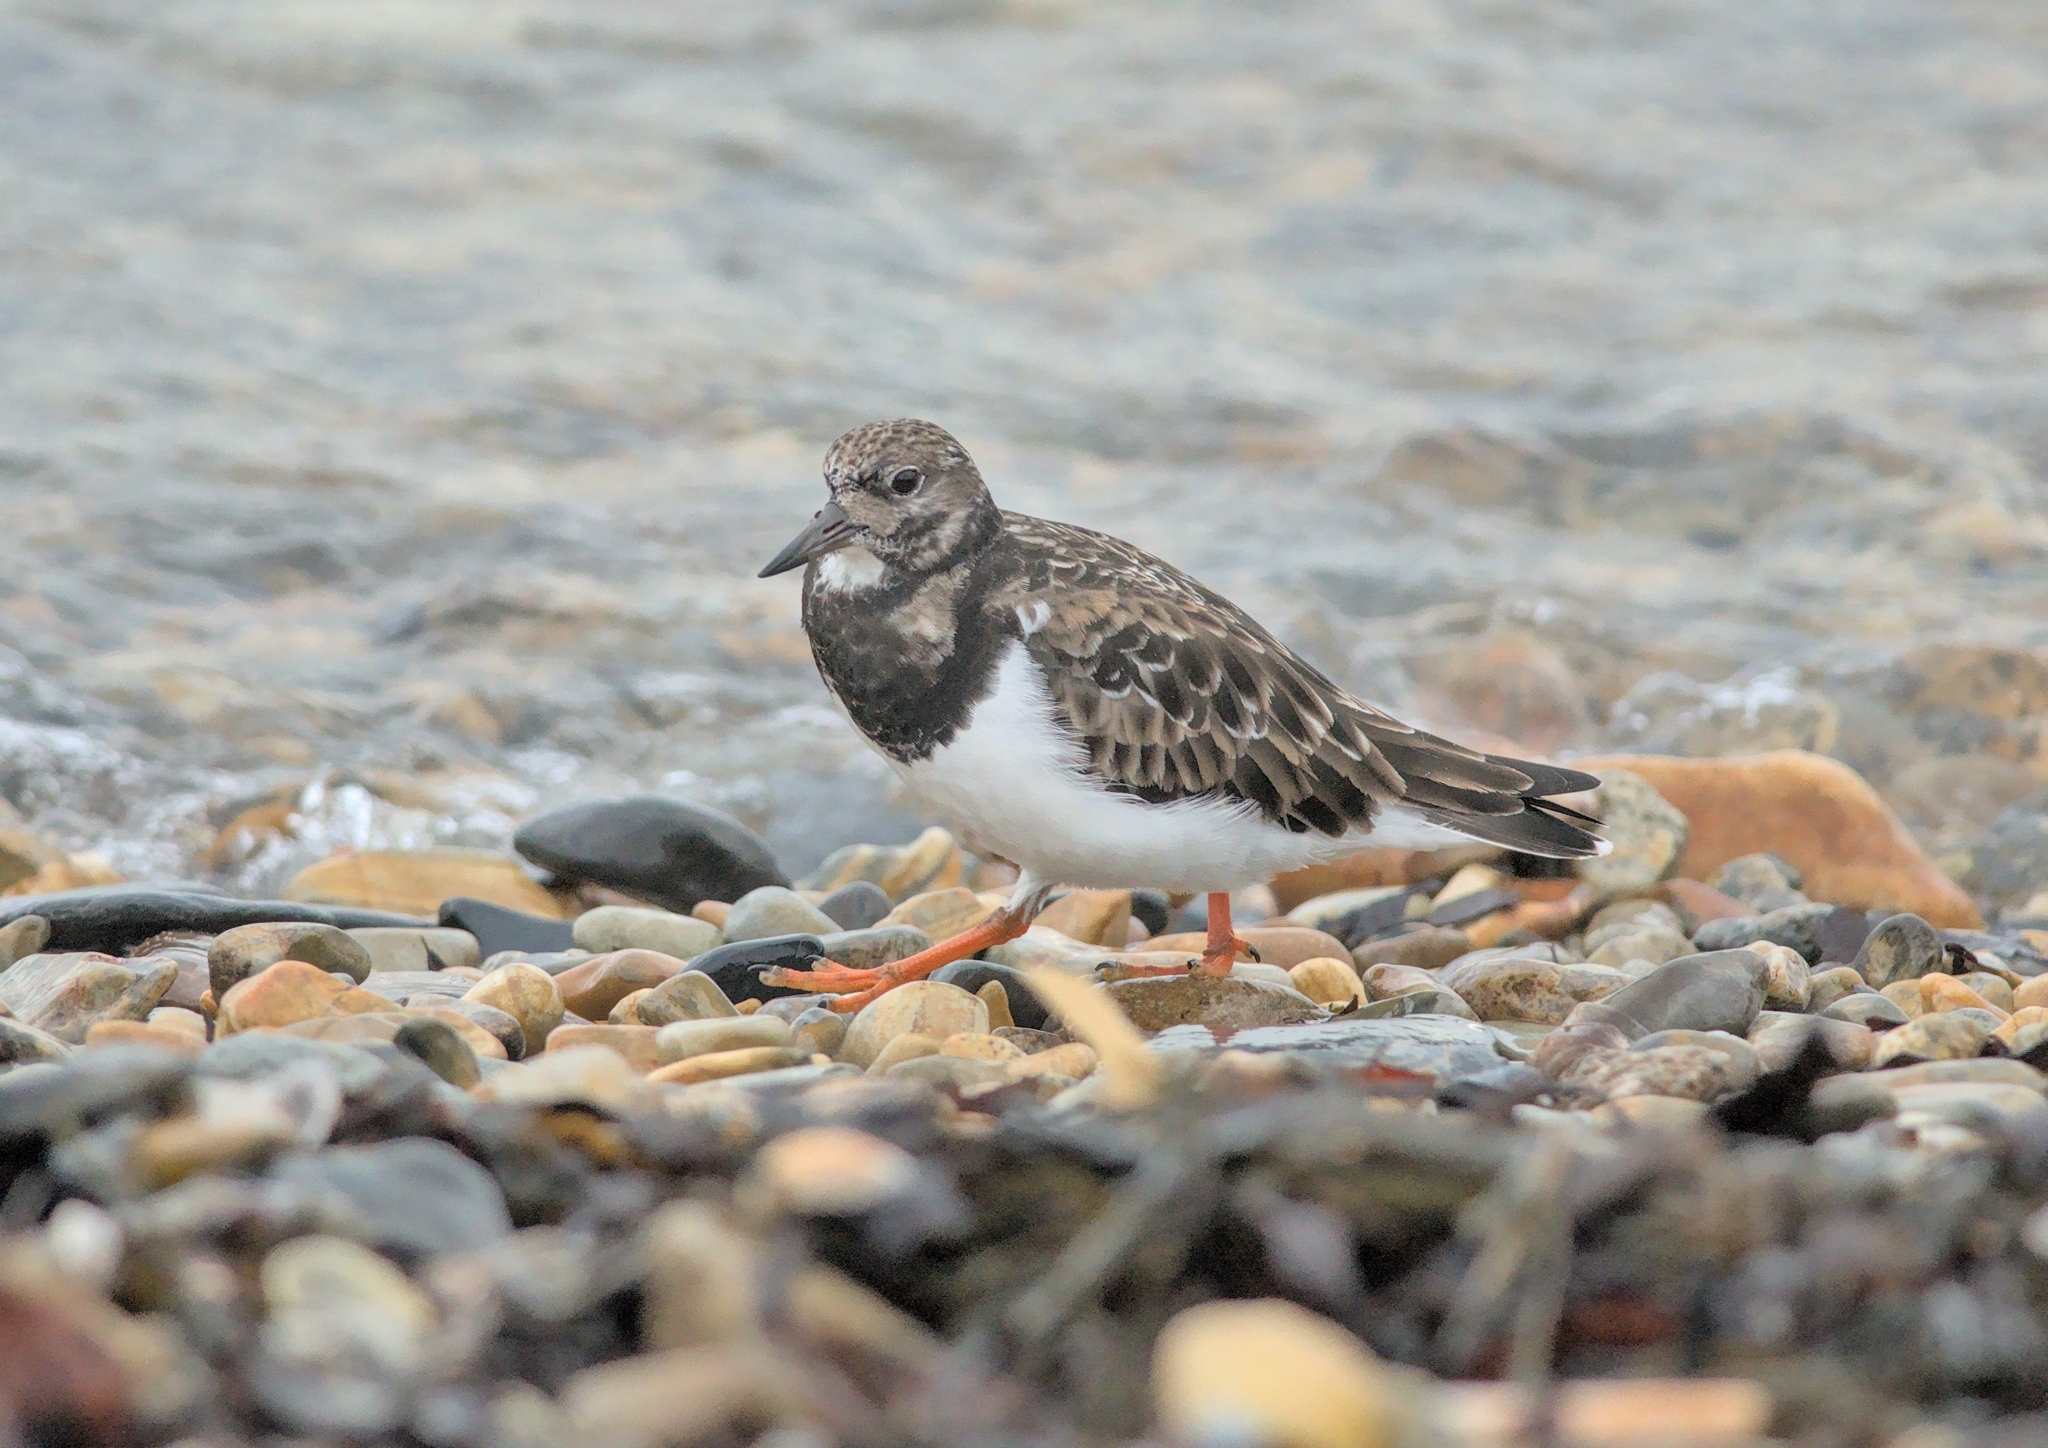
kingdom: Animalia
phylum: Chordata
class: Aves
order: Charadriiformes
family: Scolopacidae
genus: Arenaria
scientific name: Arenaria interpres
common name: Ruddy turnstone
